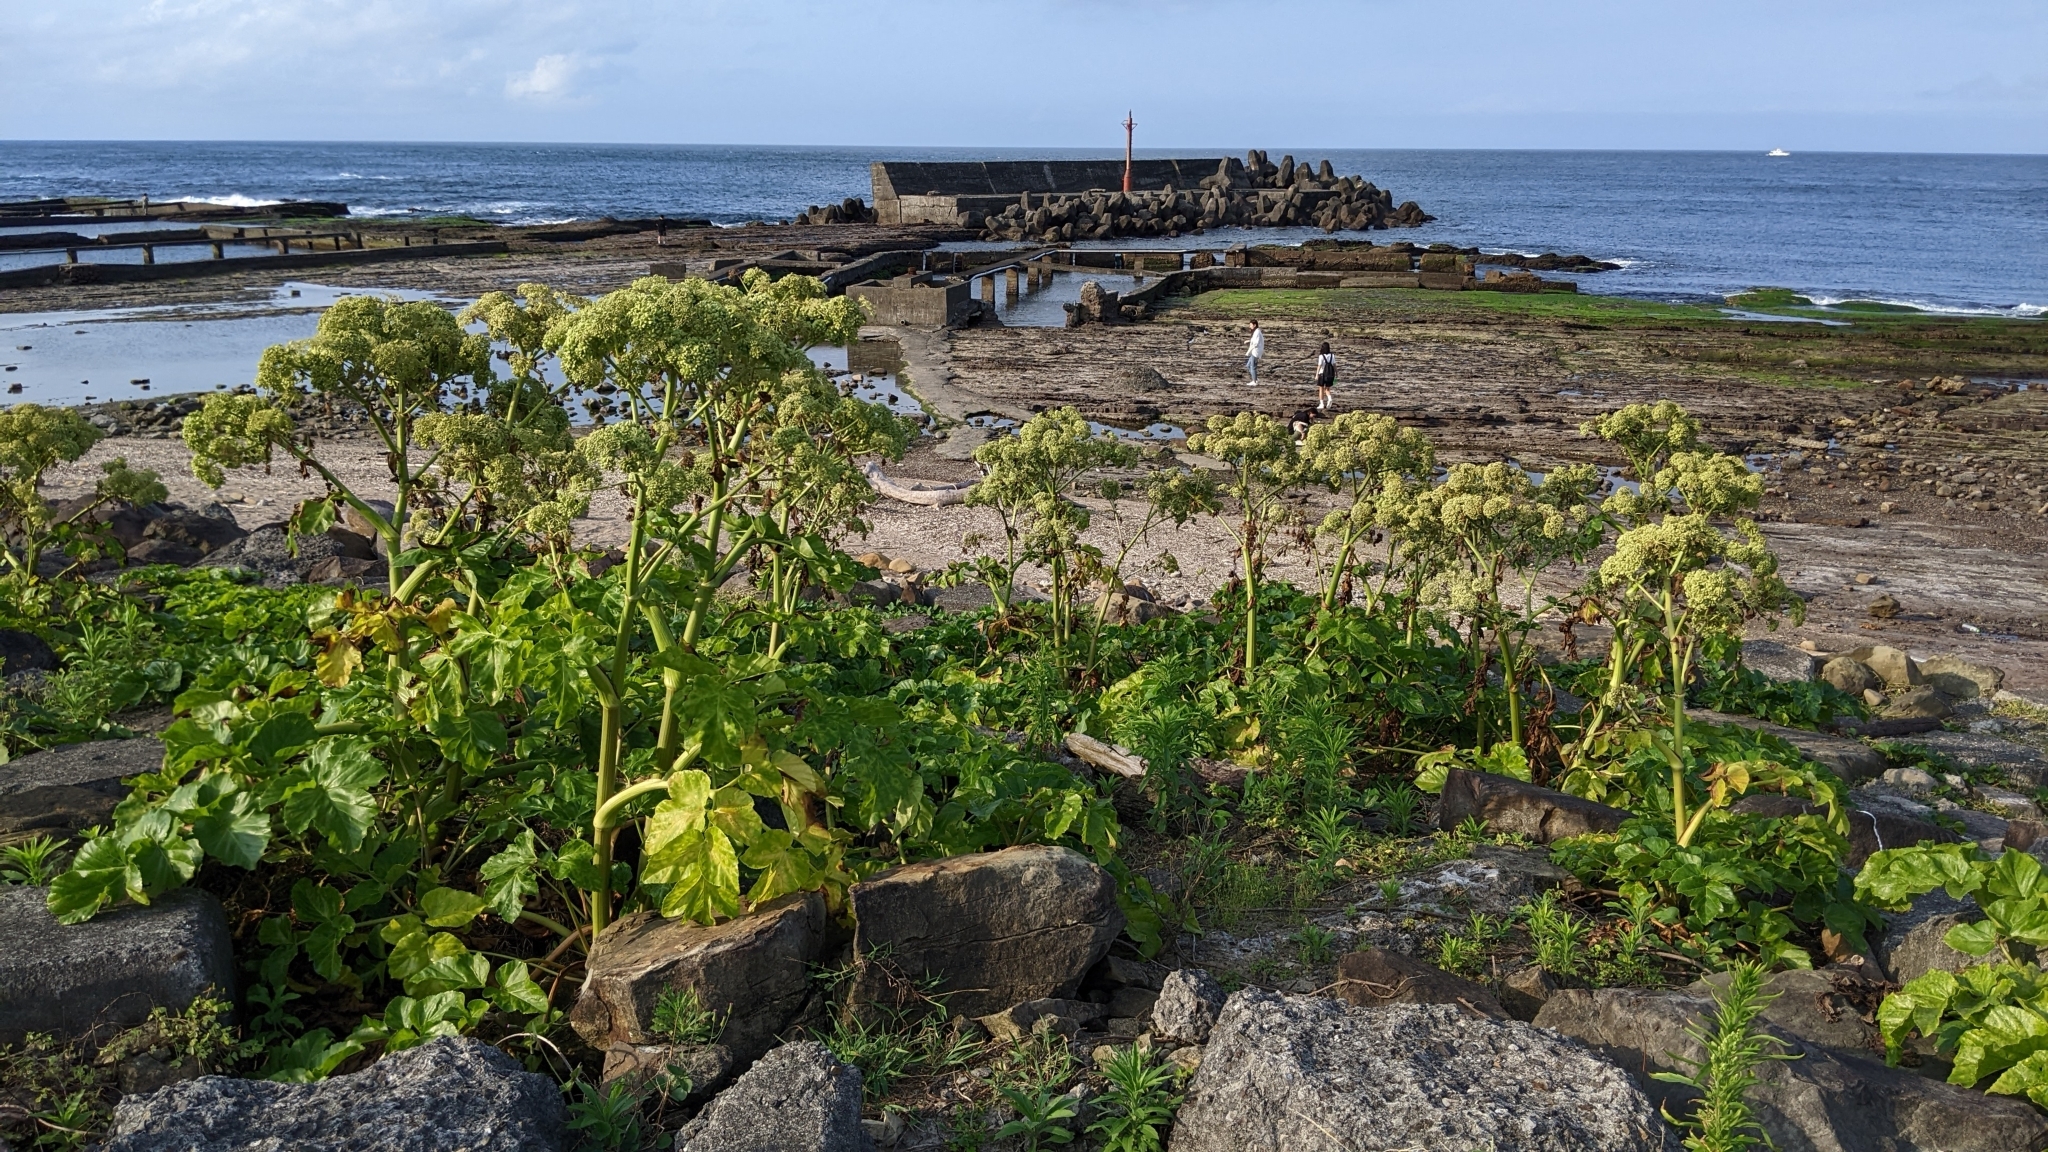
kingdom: Plantae
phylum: Tracheophyta
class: Magnoliopsida
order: Apiales
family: Apiaceae
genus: Angelica
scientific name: Angelica hirsutiflora
